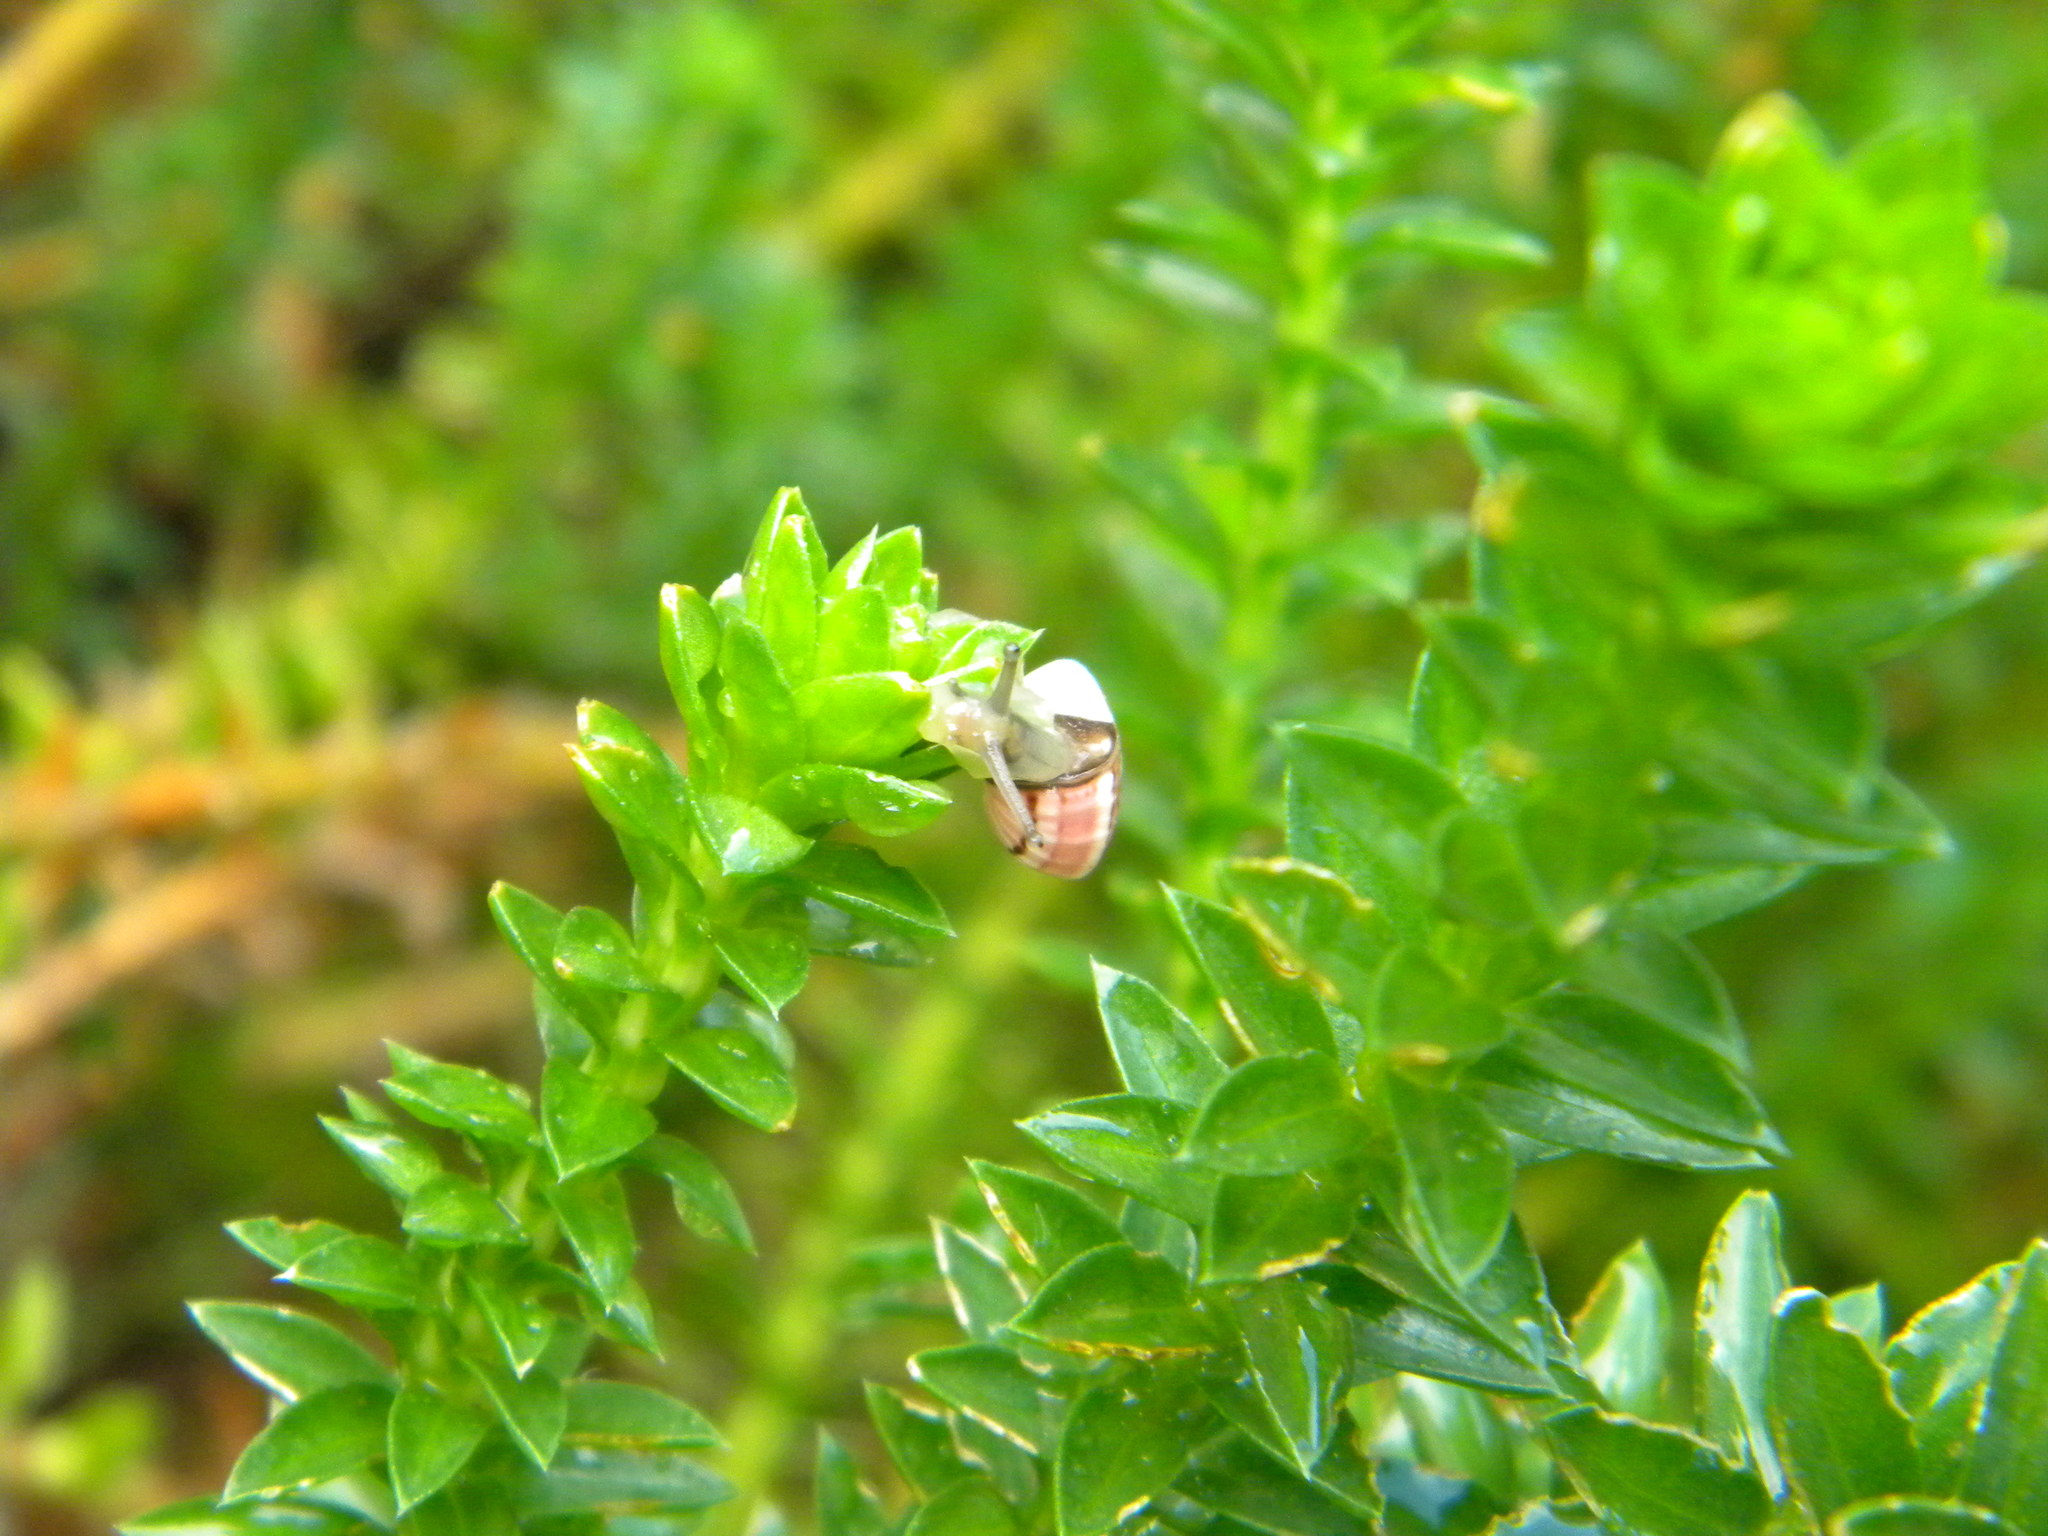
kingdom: Animalia
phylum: Mollusca
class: Gastropoda
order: Stylommatophora
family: Helicidae
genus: Theba
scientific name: Theba pisana
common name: White snail
